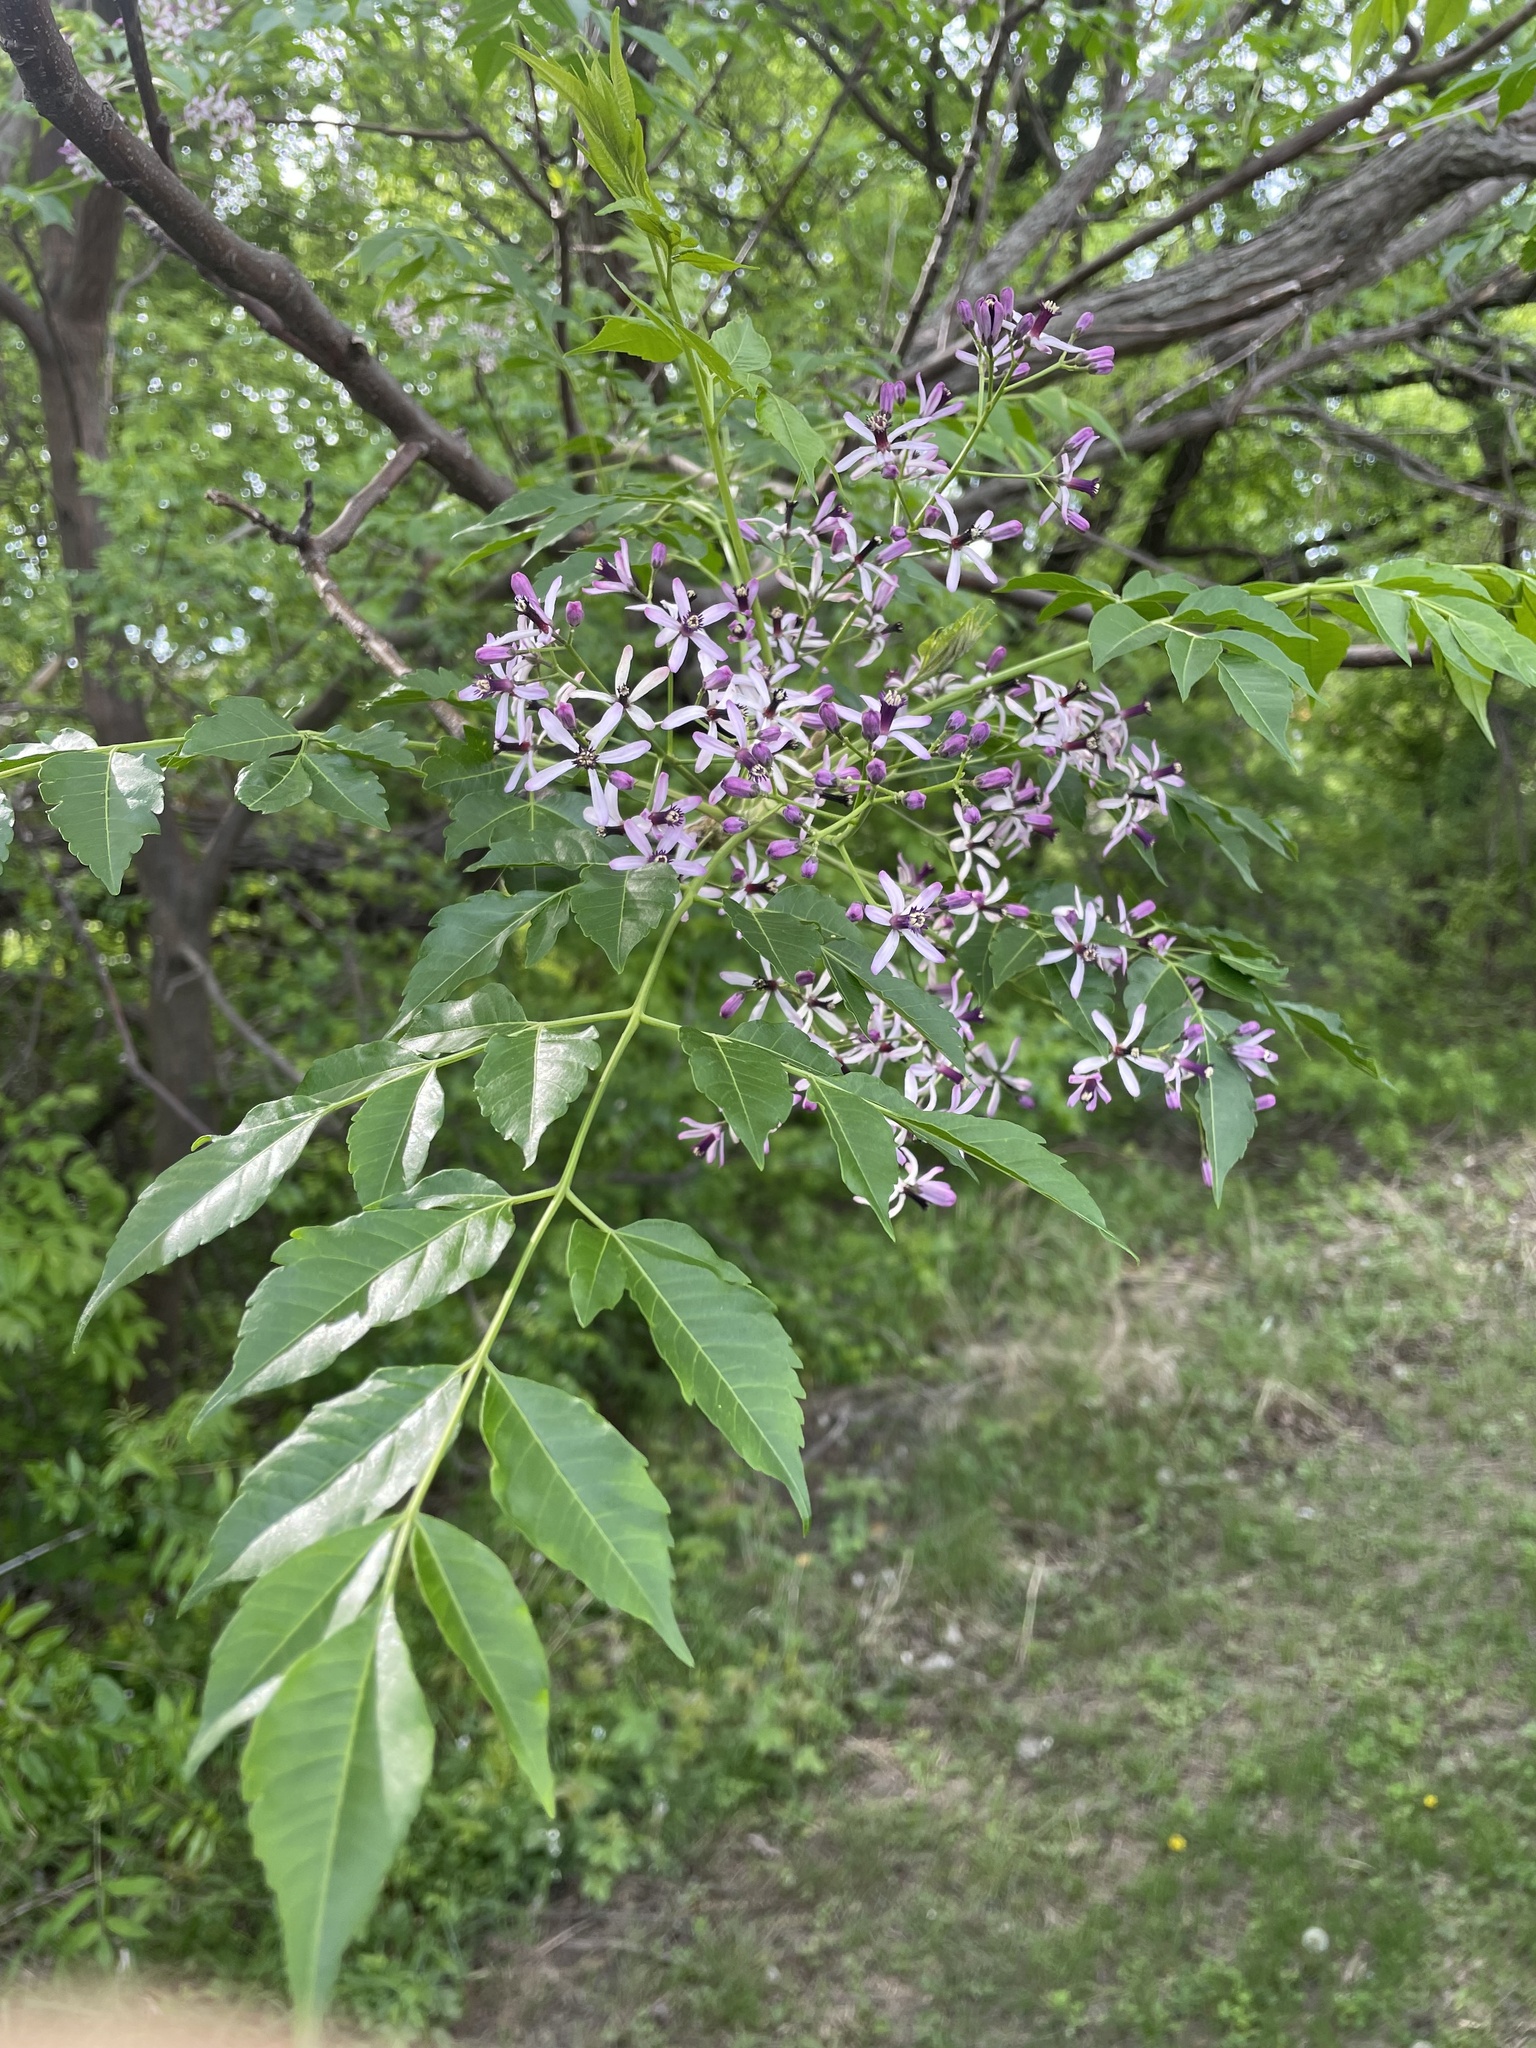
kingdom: Plantae
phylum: Tracheophyta
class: Magnoliopsida
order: Sapindales
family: Meliaceae
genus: Melia
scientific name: Melia azedarach
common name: Chinaberrytree
